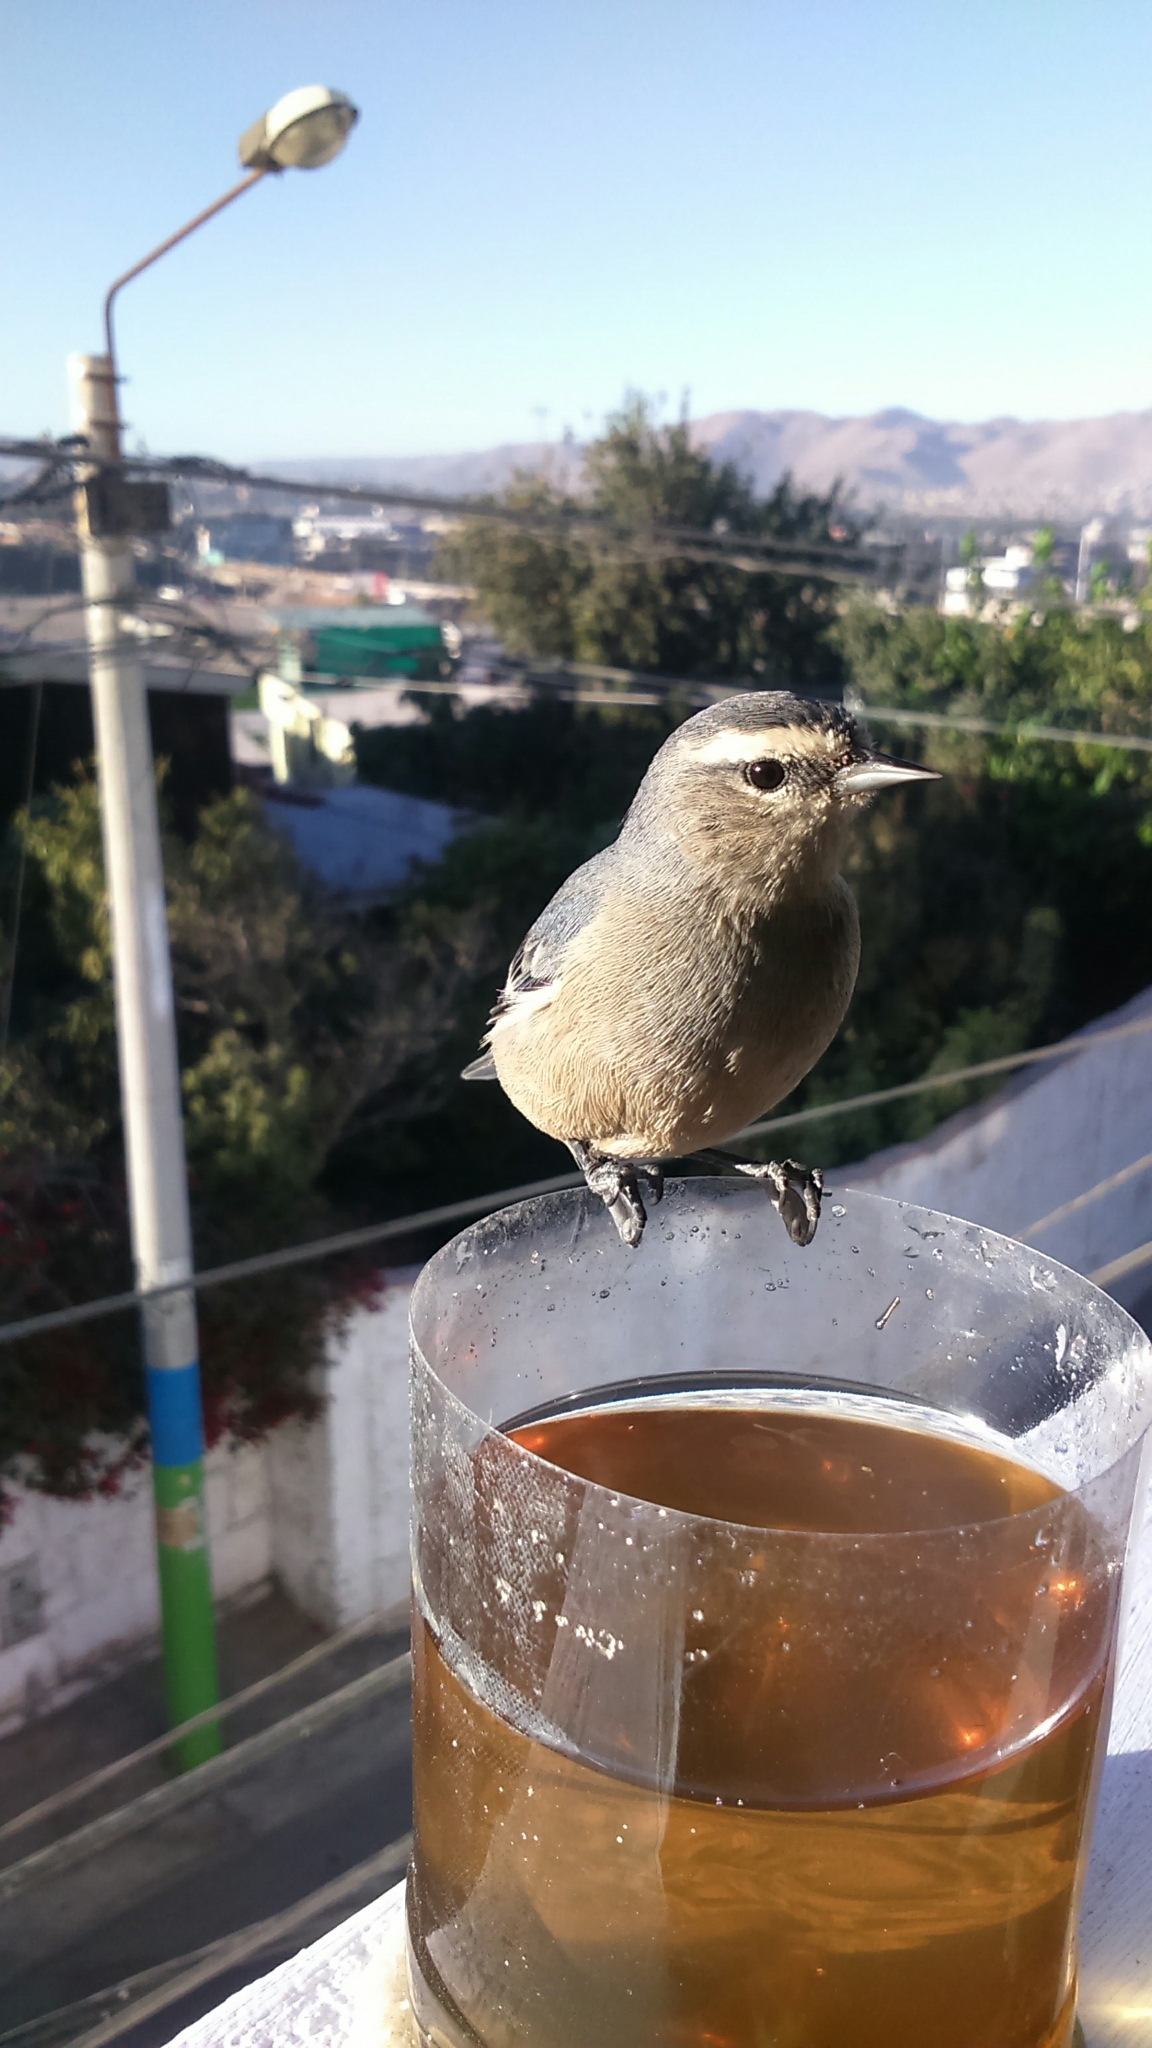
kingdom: Animalia
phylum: Chordata
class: Aves
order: Passeriformes
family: Thraupidae
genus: Conirostrum
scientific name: Conirostrum cinereum
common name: Cinereous conebill
